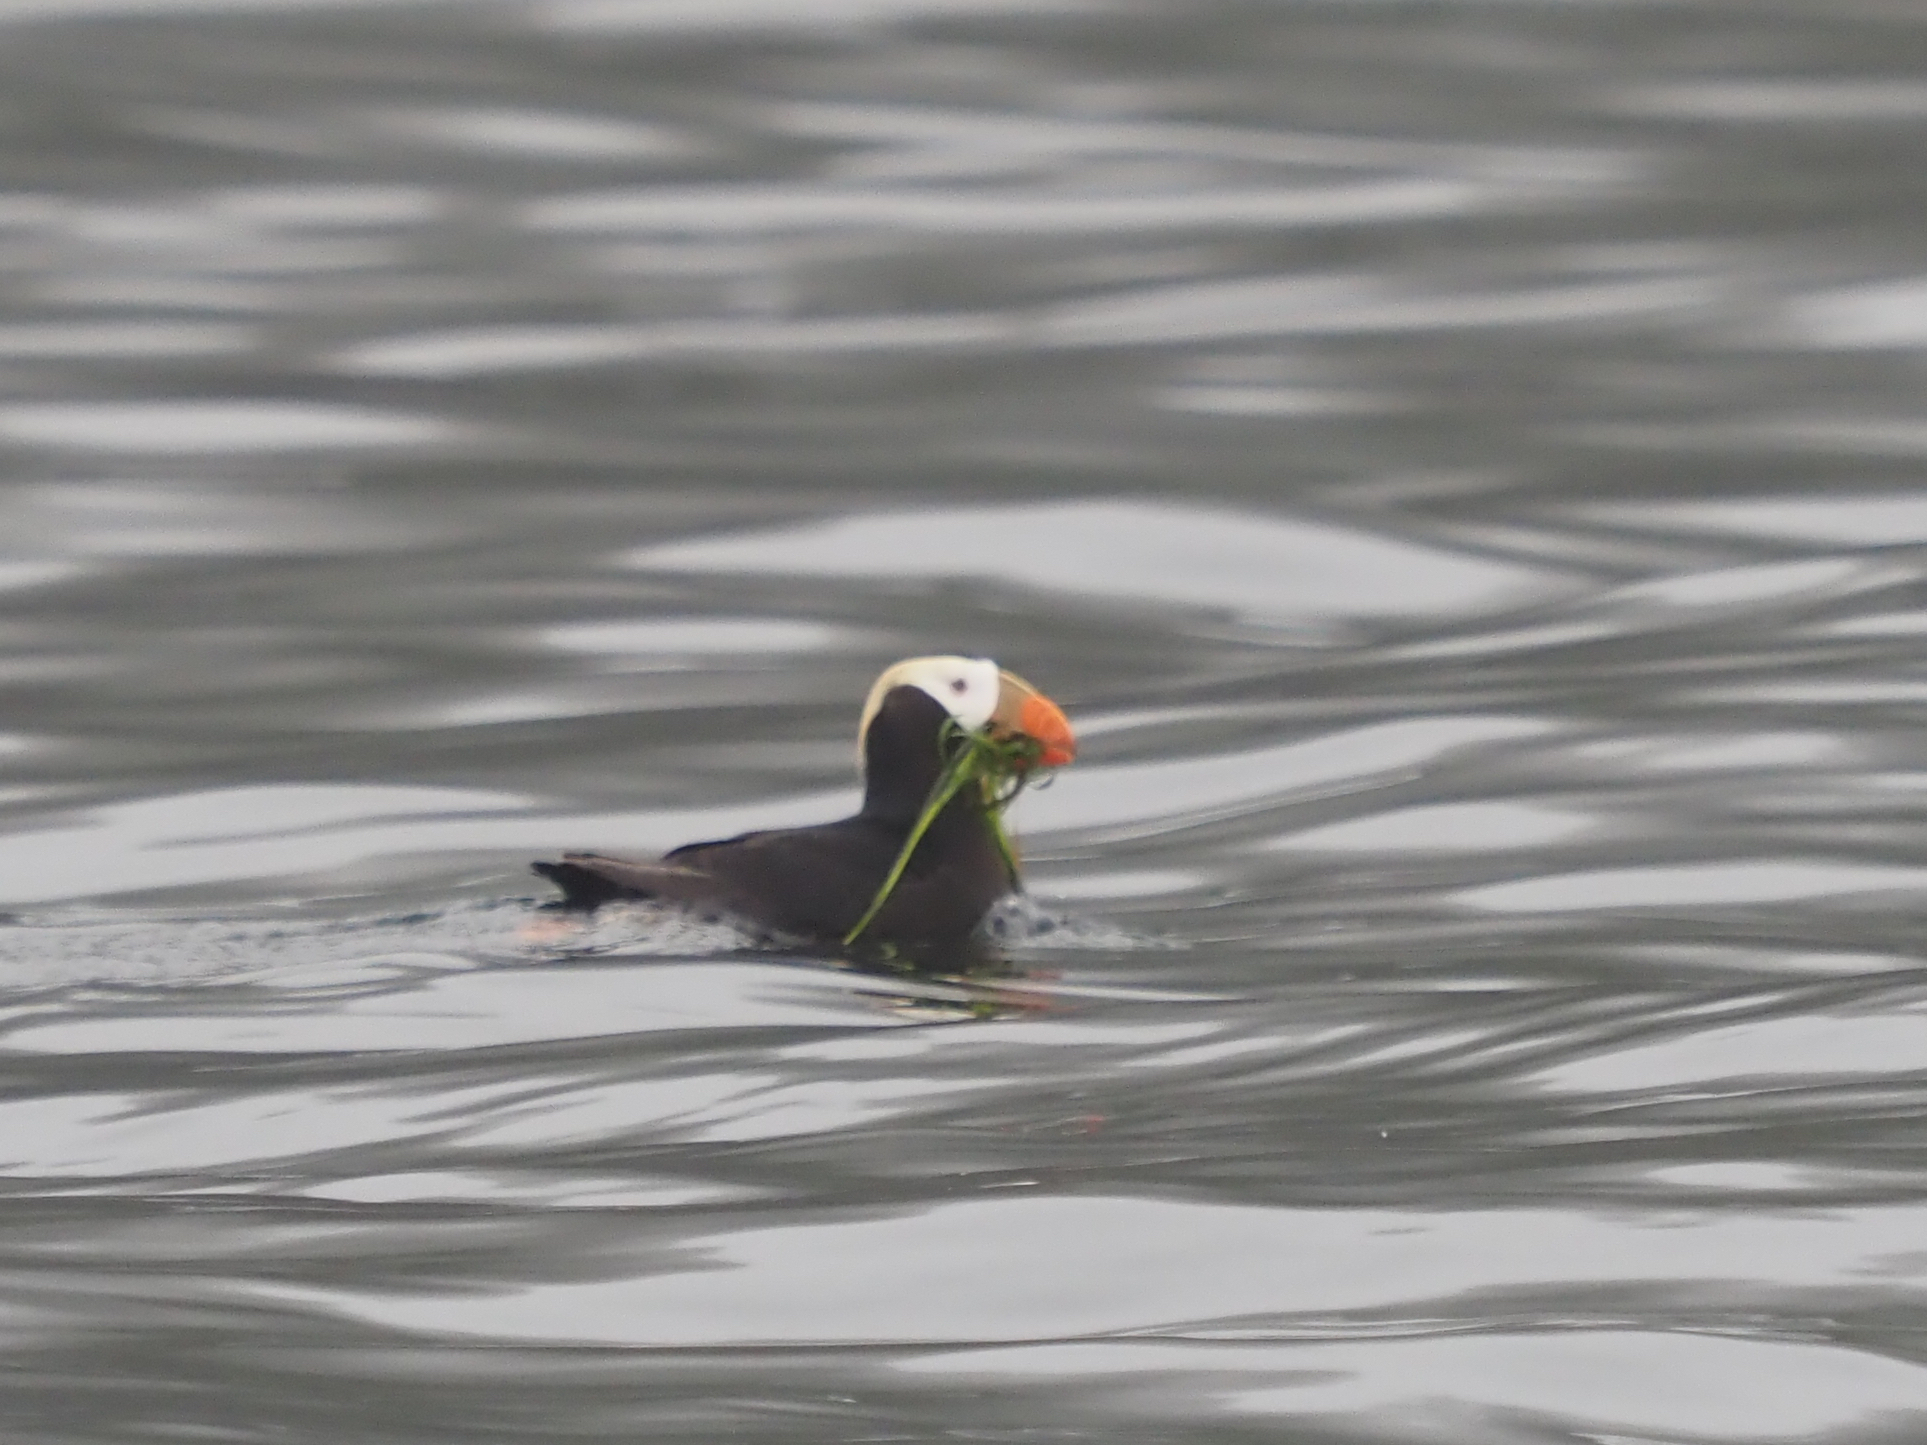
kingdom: Animalia
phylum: Chordata
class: Aves
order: Charadriiformes
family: Alcidae
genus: Fratercula
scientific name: Fratercula cirrhata
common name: Tufted puffin
